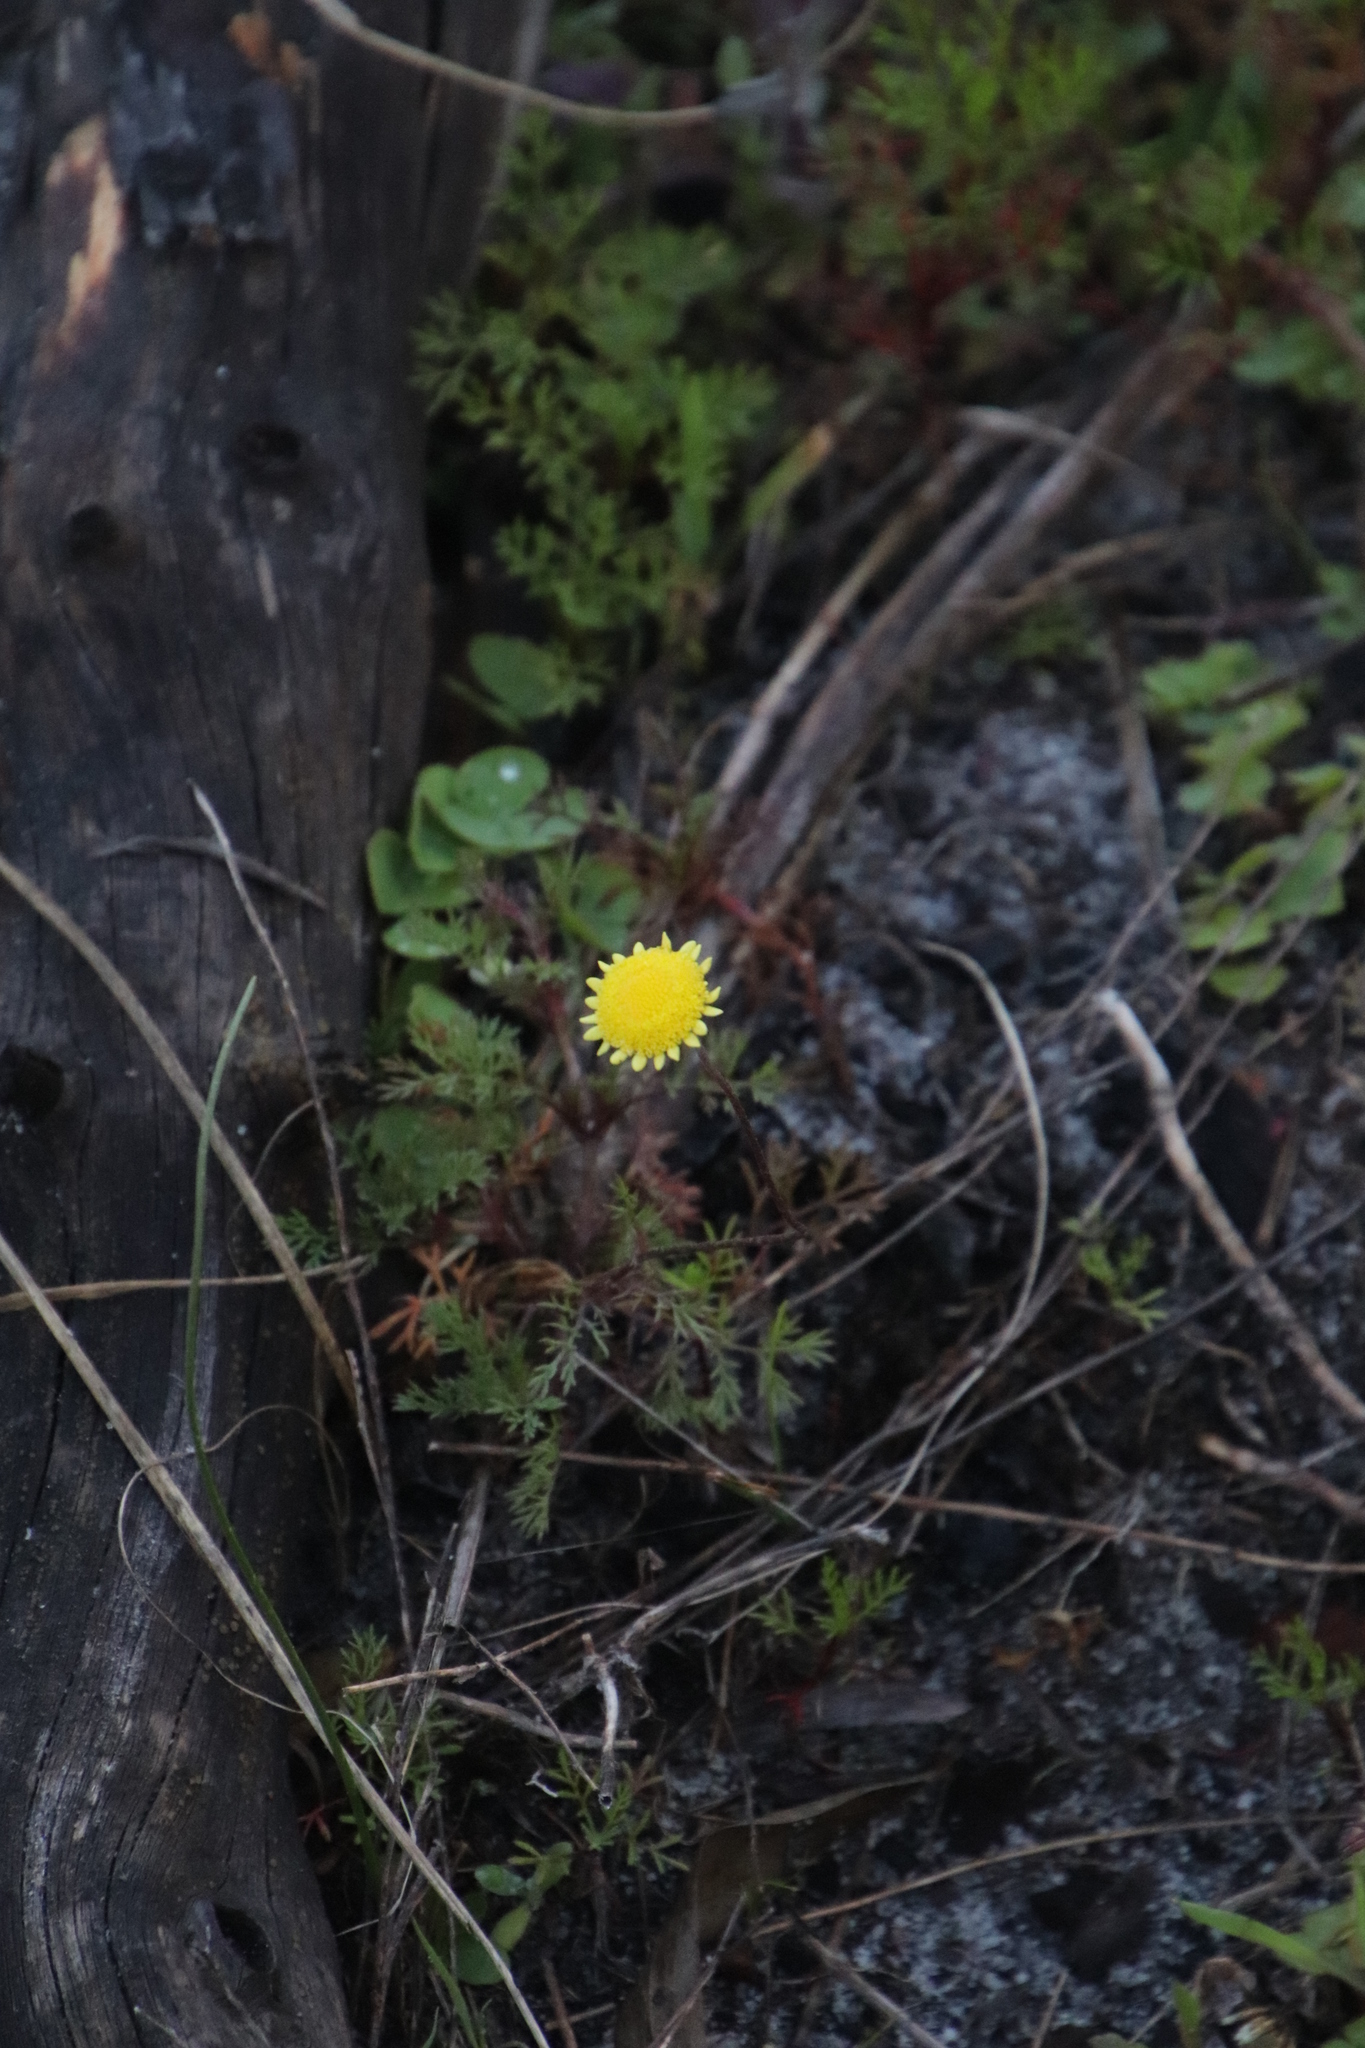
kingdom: Plantae
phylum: Tracheophyta
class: Magnoliopsida
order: Asterales
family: Asteraceae
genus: Cotula
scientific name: Cotula pruinosa
